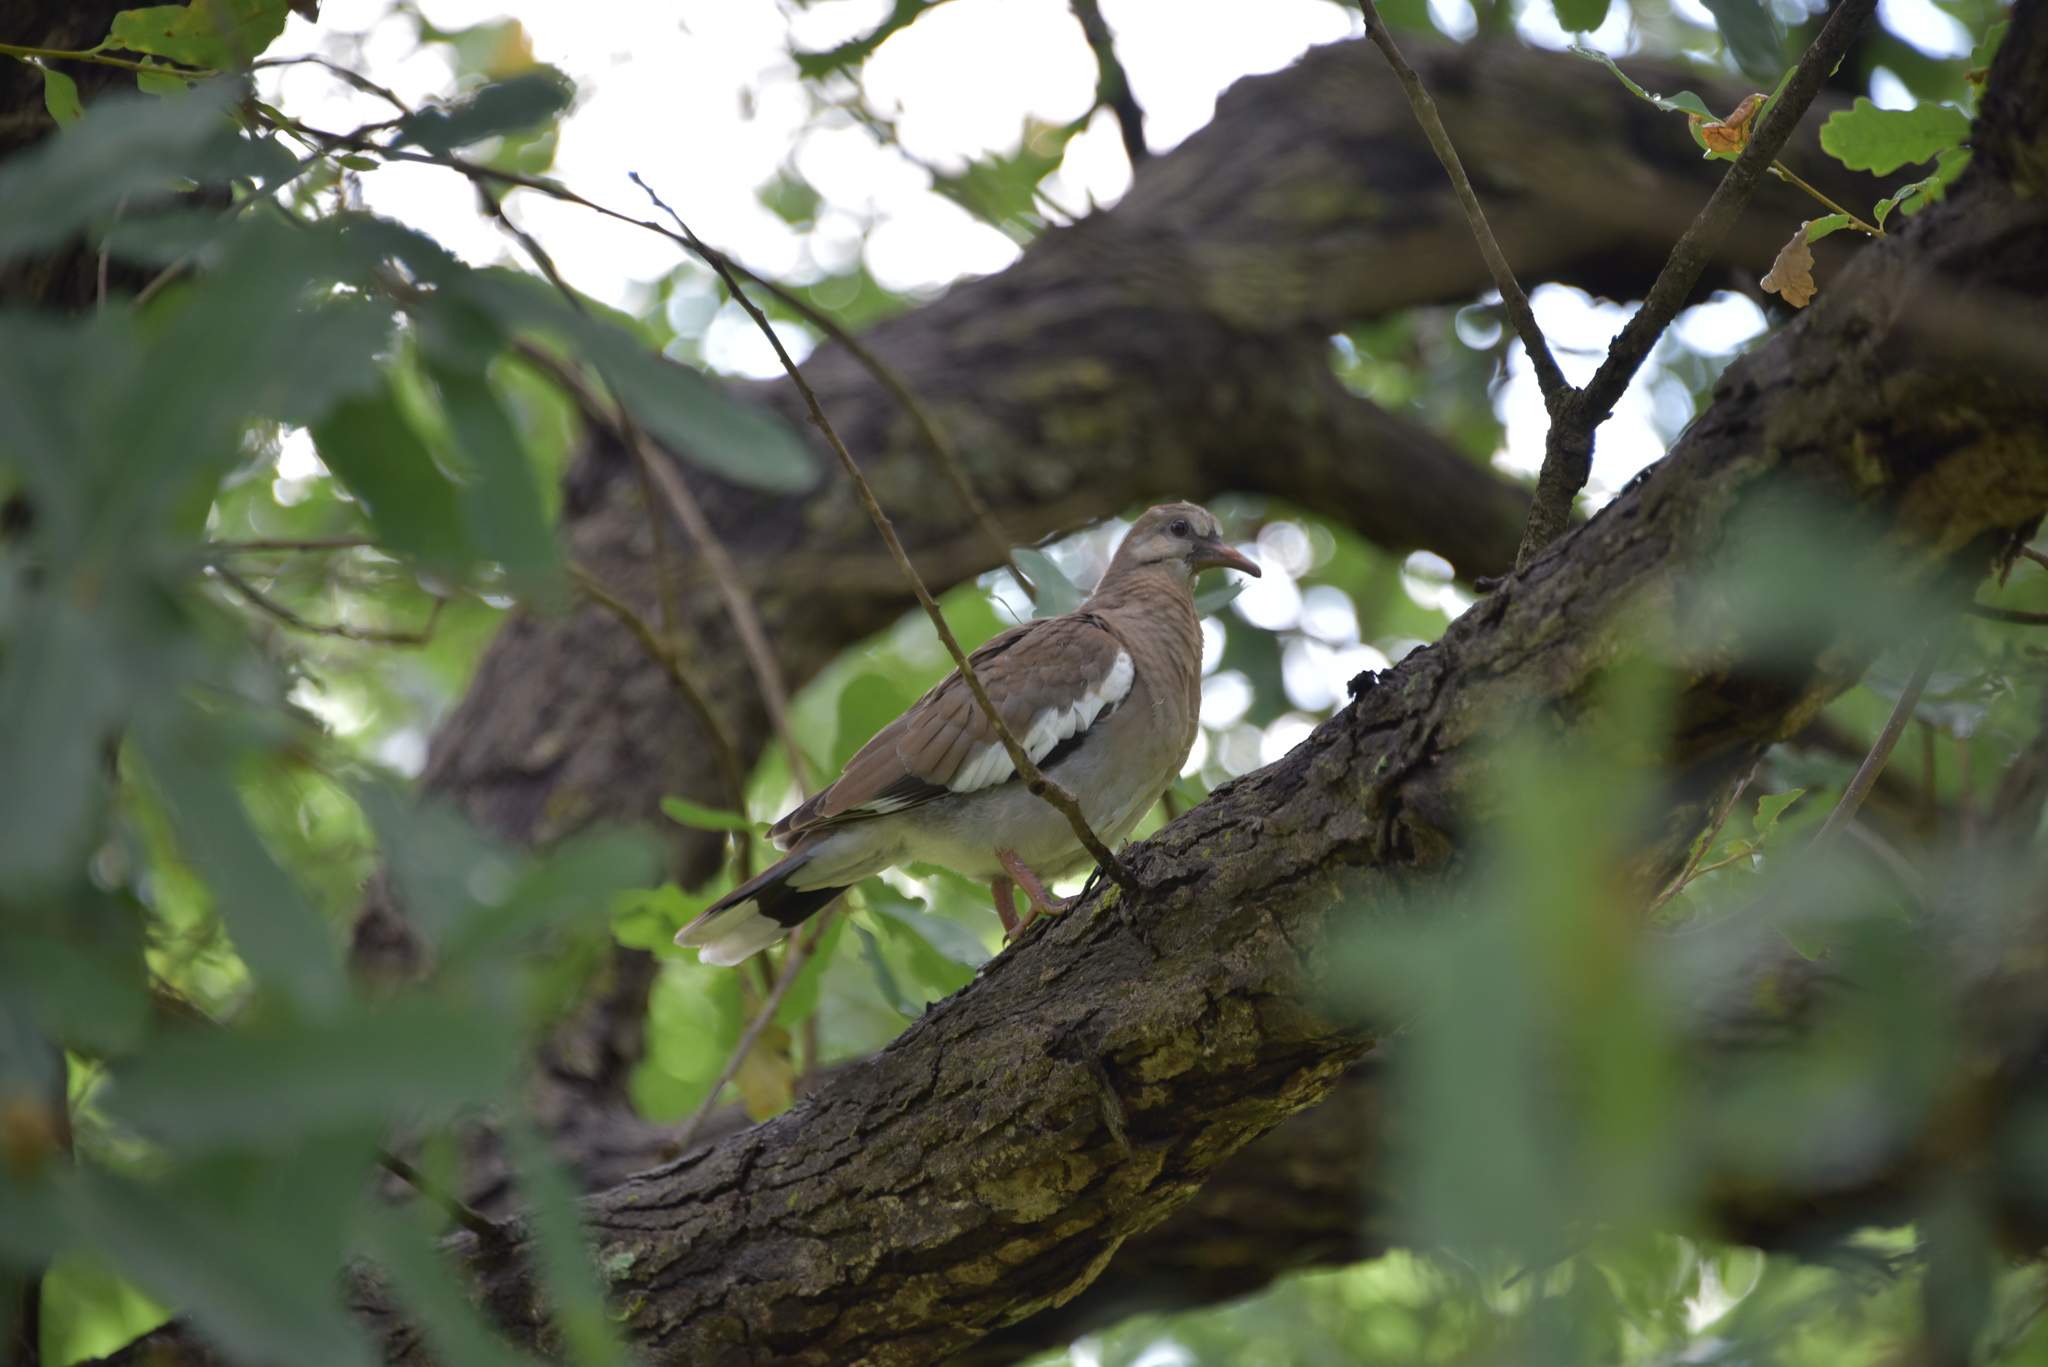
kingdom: Animalia
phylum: Chordata
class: Aves
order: Columbiformes
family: Columbidae
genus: Zenaida
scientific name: Zenaida asiatica
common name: White-winged dove
